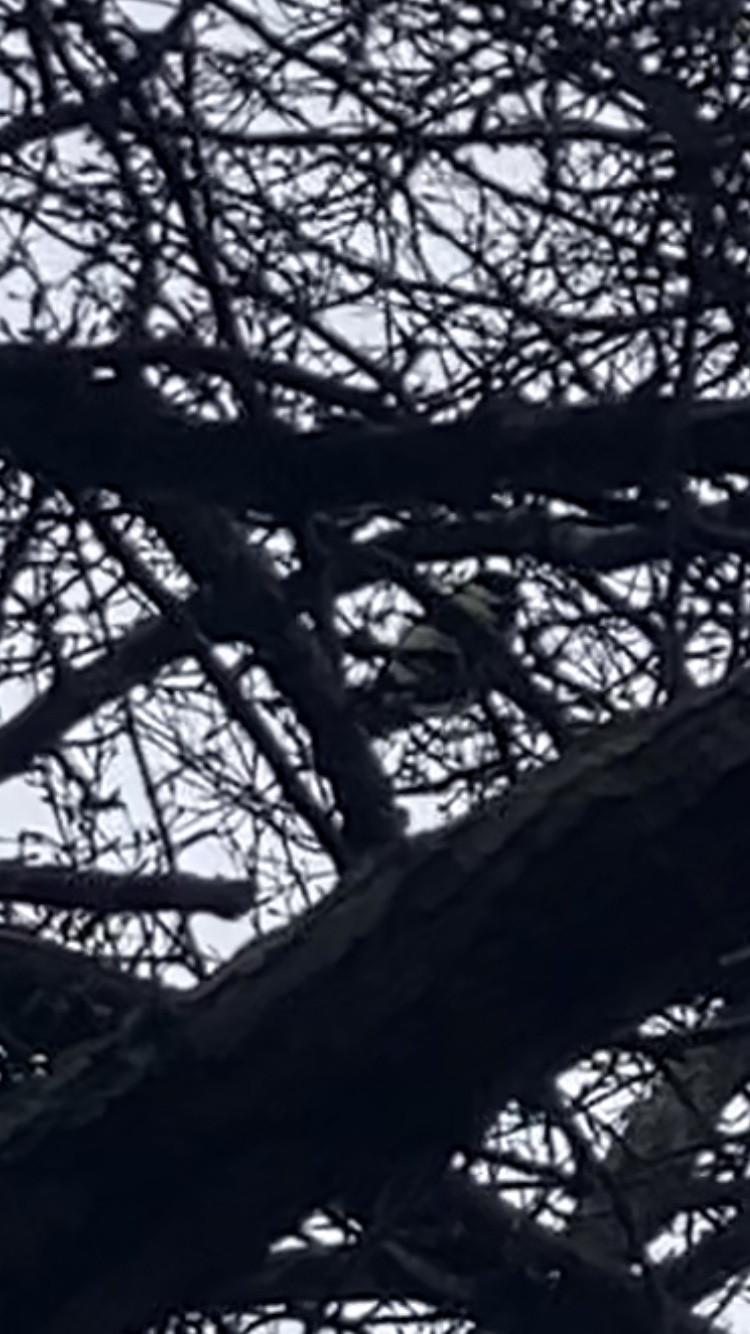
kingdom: Animalia
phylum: Chordata
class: Aves
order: Passeriformes
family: Paridae
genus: Parus
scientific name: Parus major
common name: Great tit
